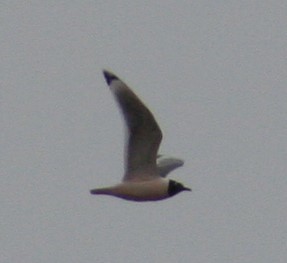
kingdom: Animalia
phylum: Chordata
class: Aves
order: Charadriiformes
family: Laridae
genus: Leucophaeus
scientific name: Leucophaeus pipixcan
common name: Franklin's gull
